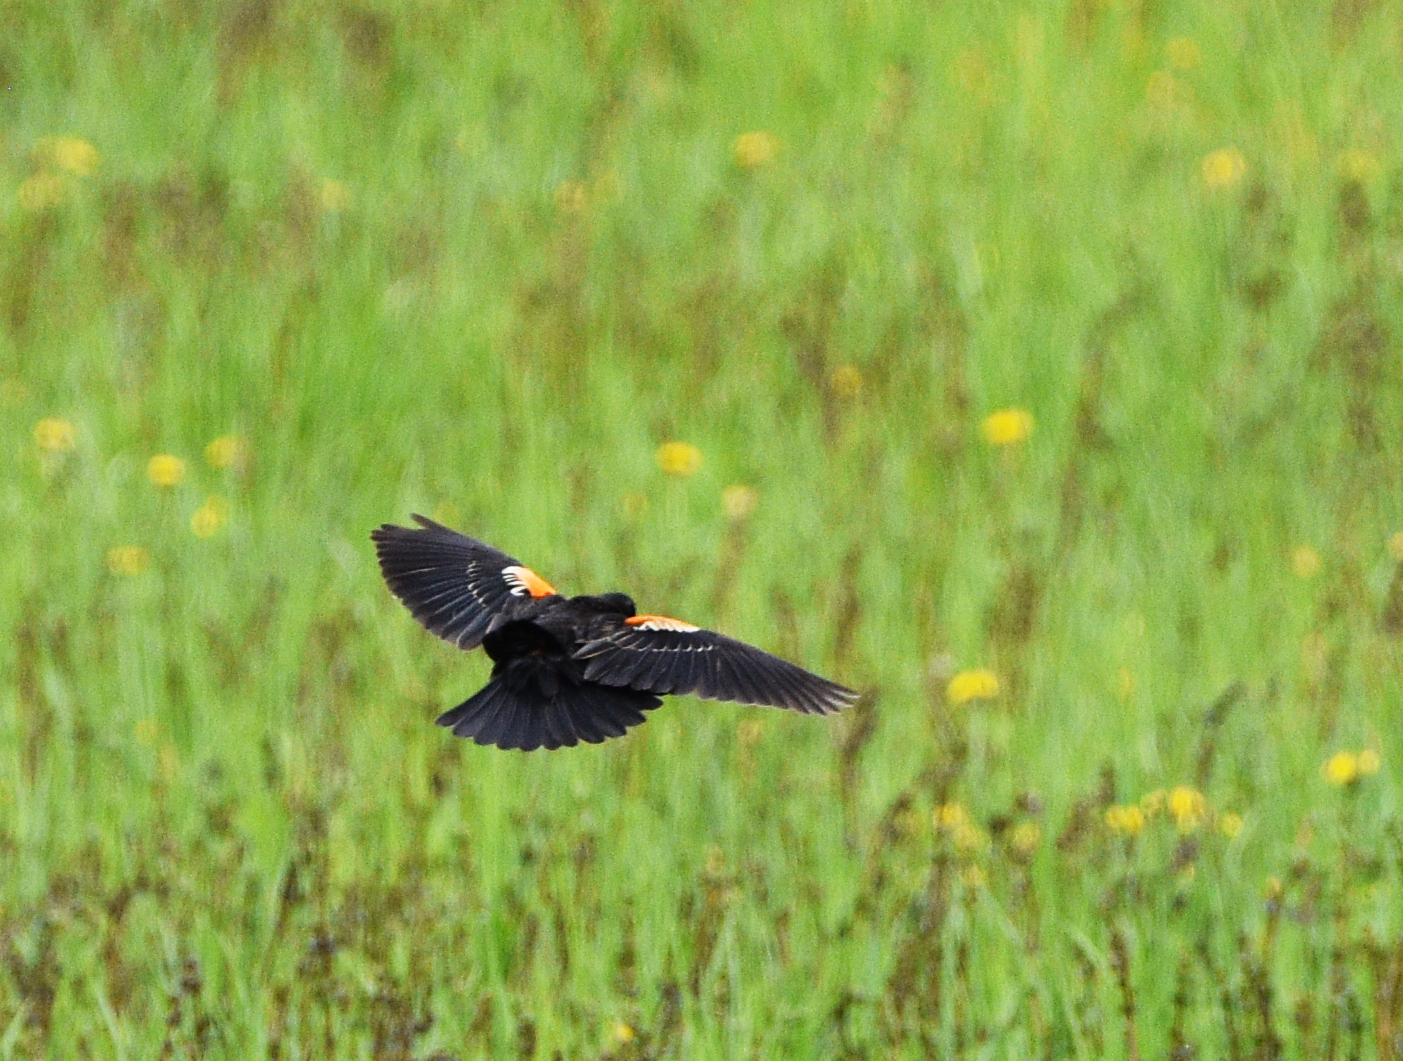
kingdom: Animalia
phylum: Chordata
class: Aves
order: Passeriformes
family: Icteridae
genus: Agelaius
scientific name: Agelaius phoeniceus
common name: Red-winged blackbird
